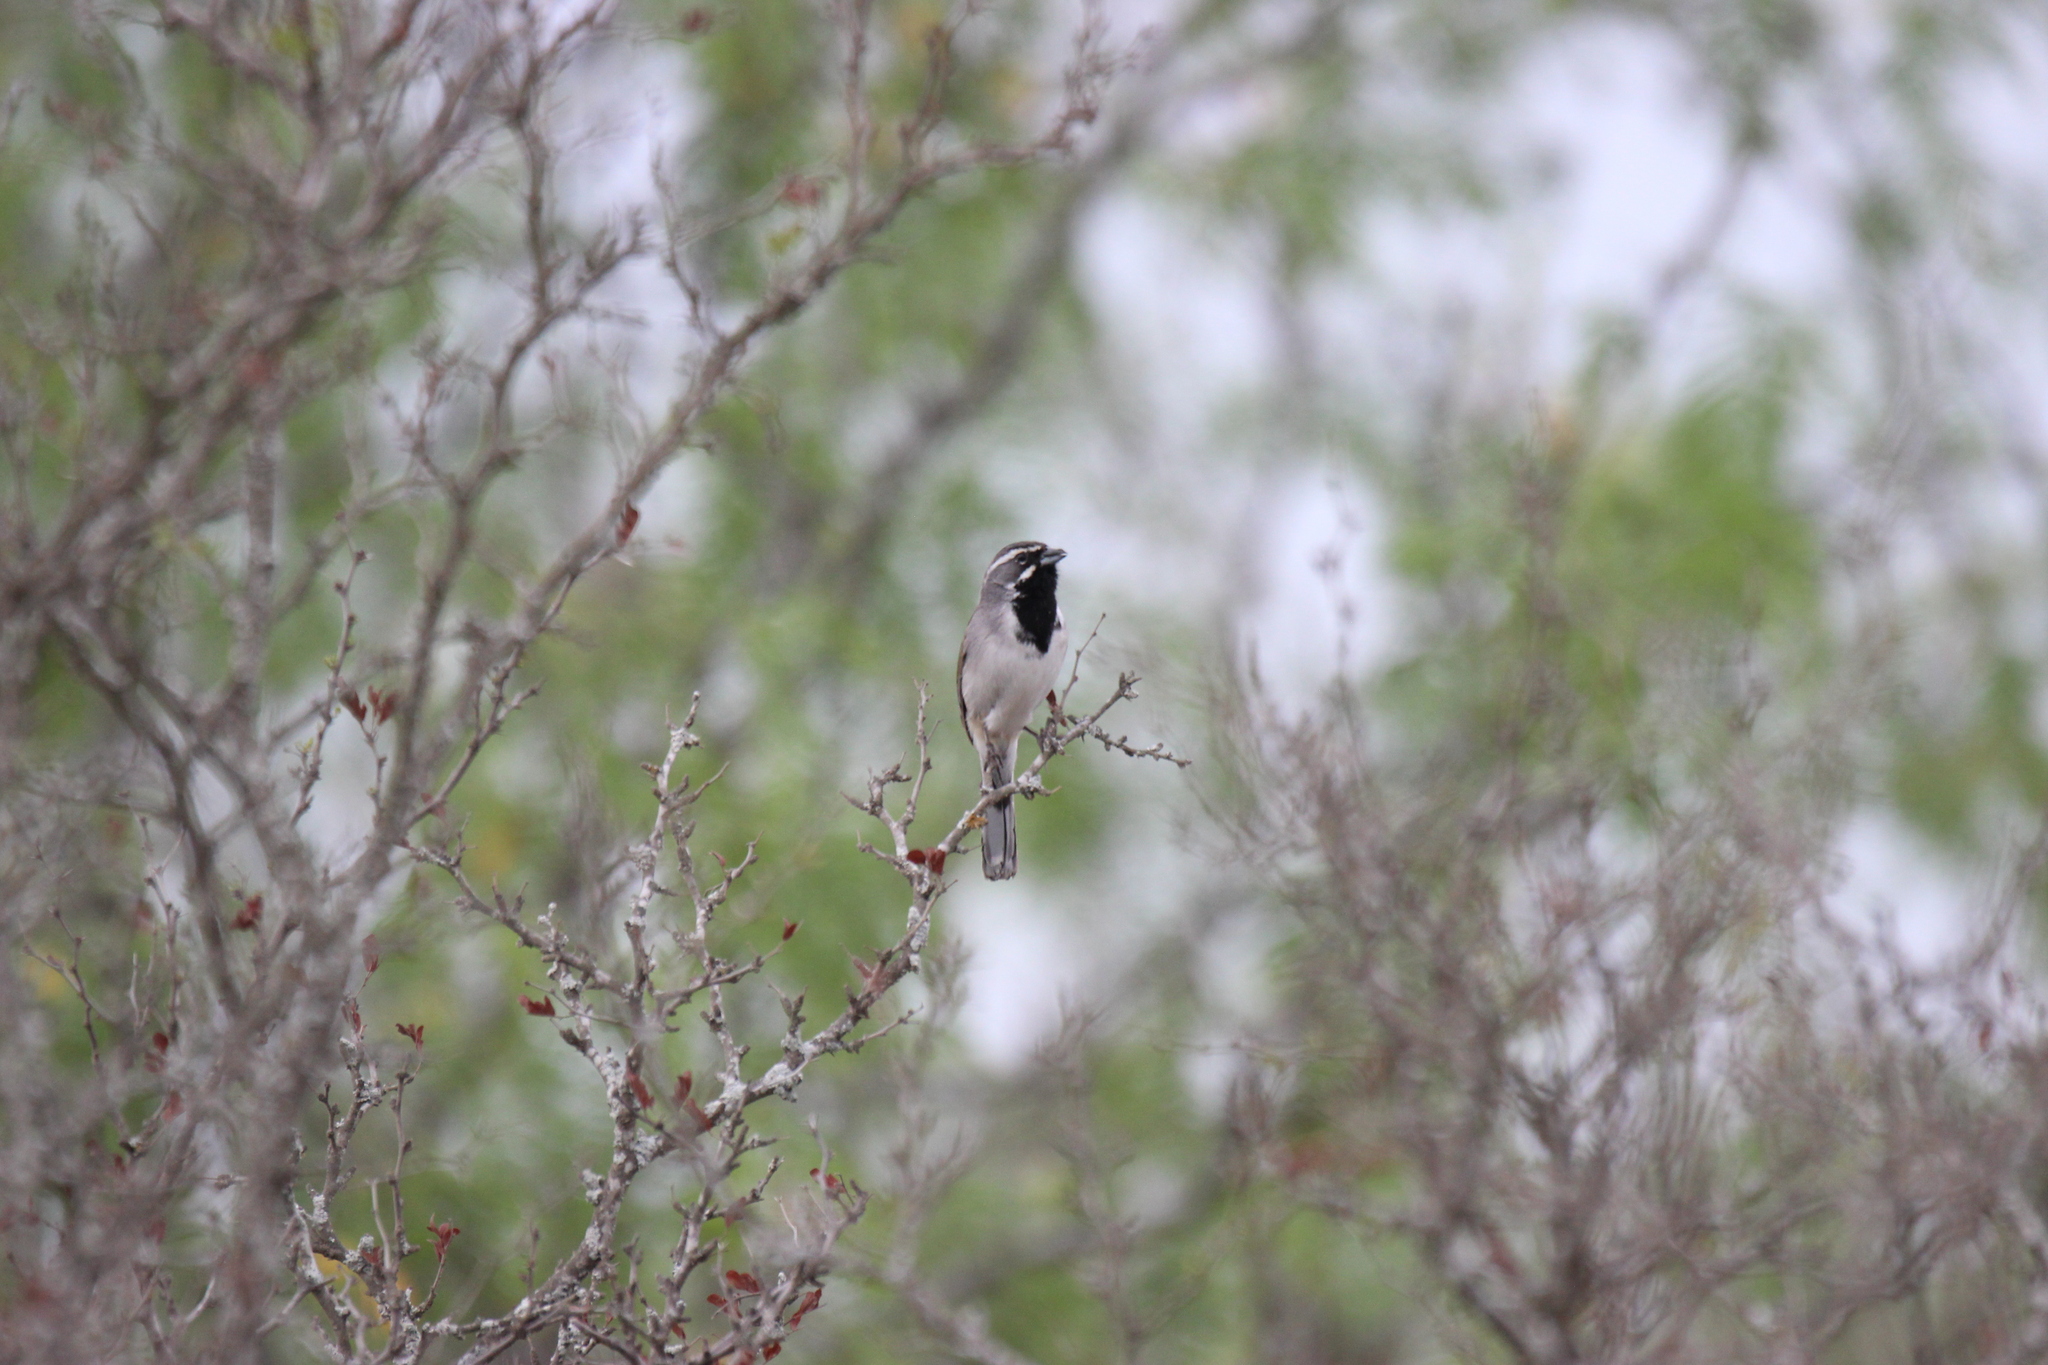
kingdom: Animalia
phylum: Chordata
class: Aves
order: Passeriformes
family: Passerellidae
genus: Amphispiza
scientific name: Amphispiza bilineata
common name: Black-throated sparrow
